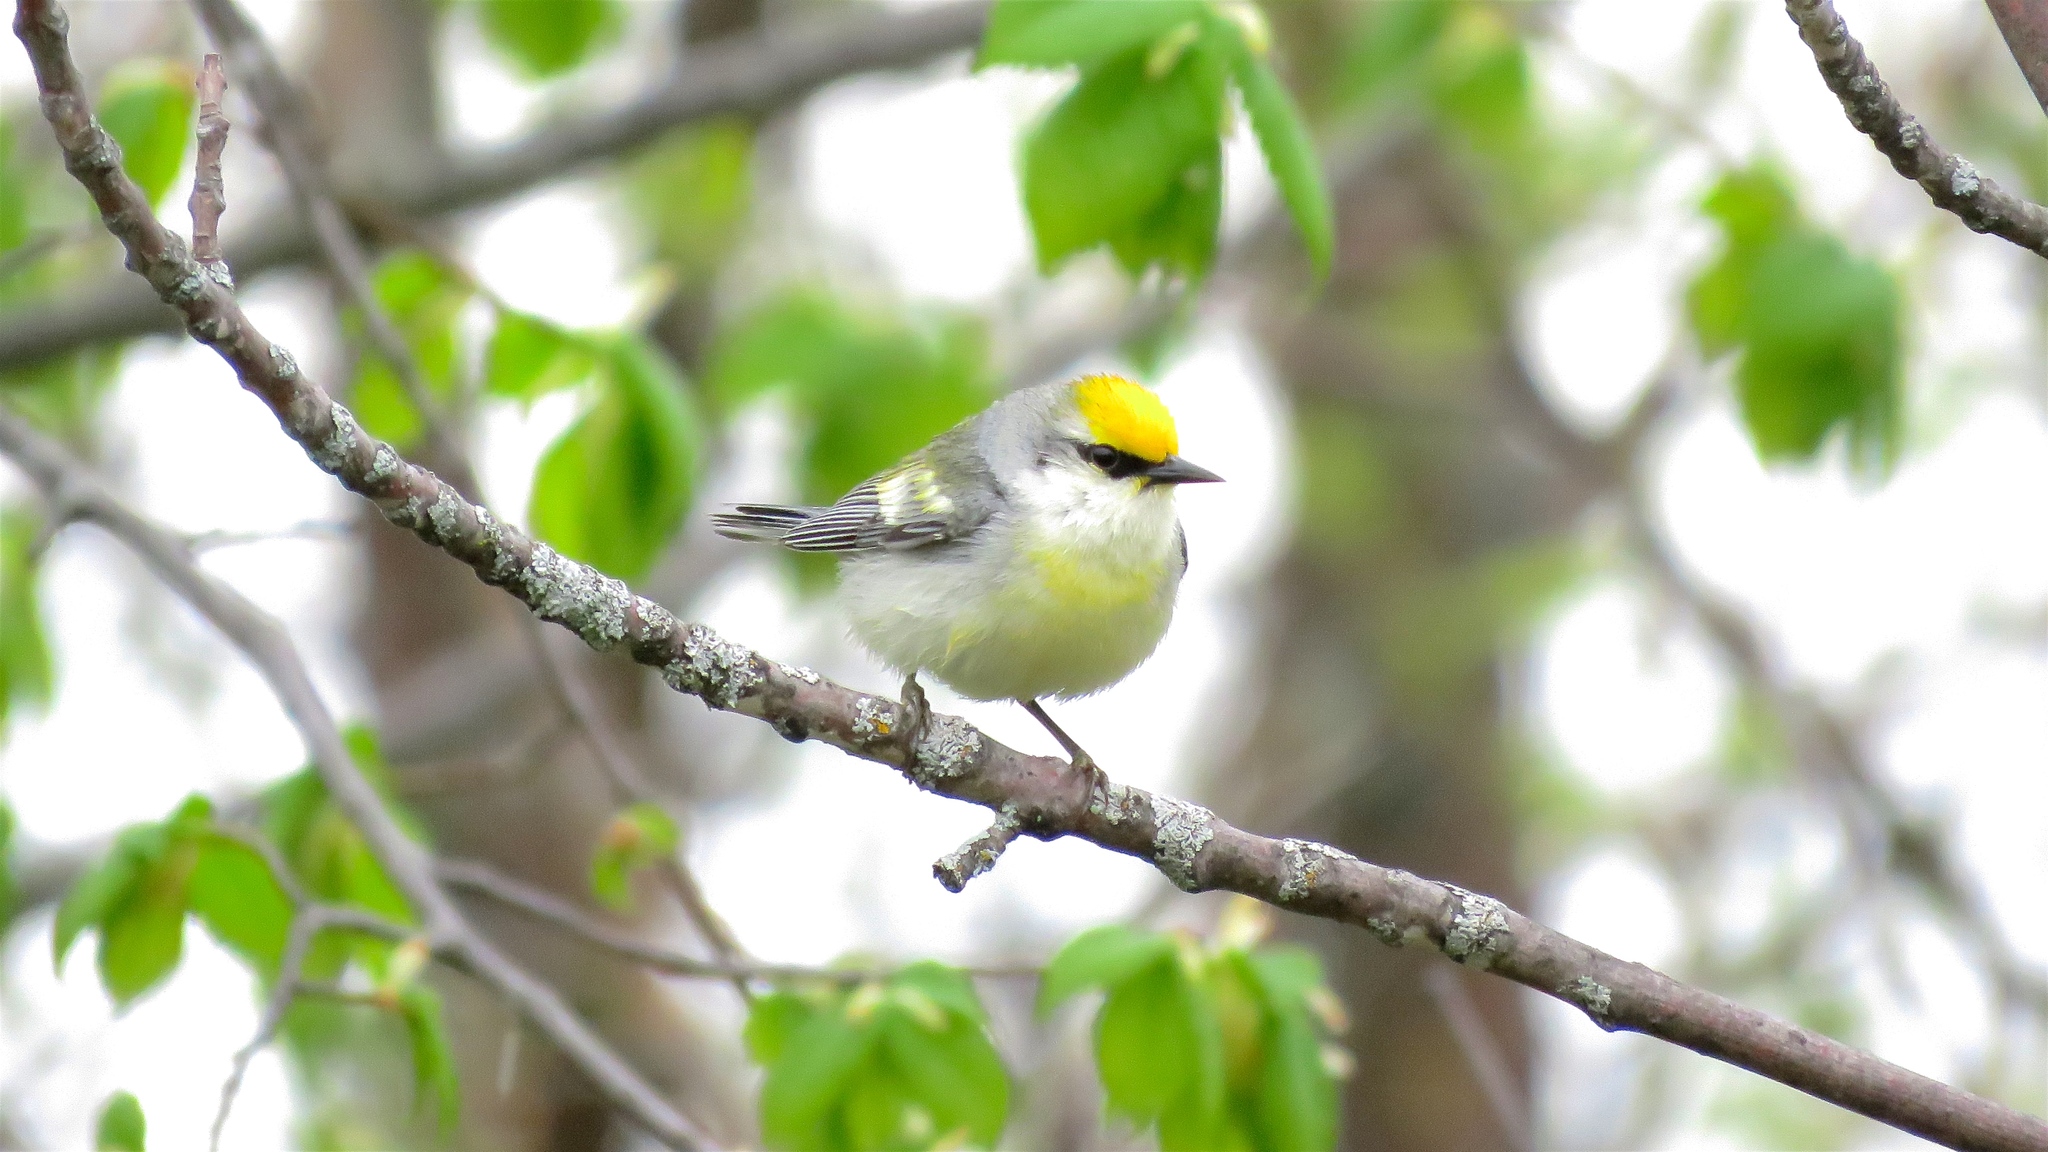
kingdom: Animalia
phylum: Chordata
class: Aves
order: Passeriformes
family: Parulidae
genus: Vermivora
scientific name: Vermivora
